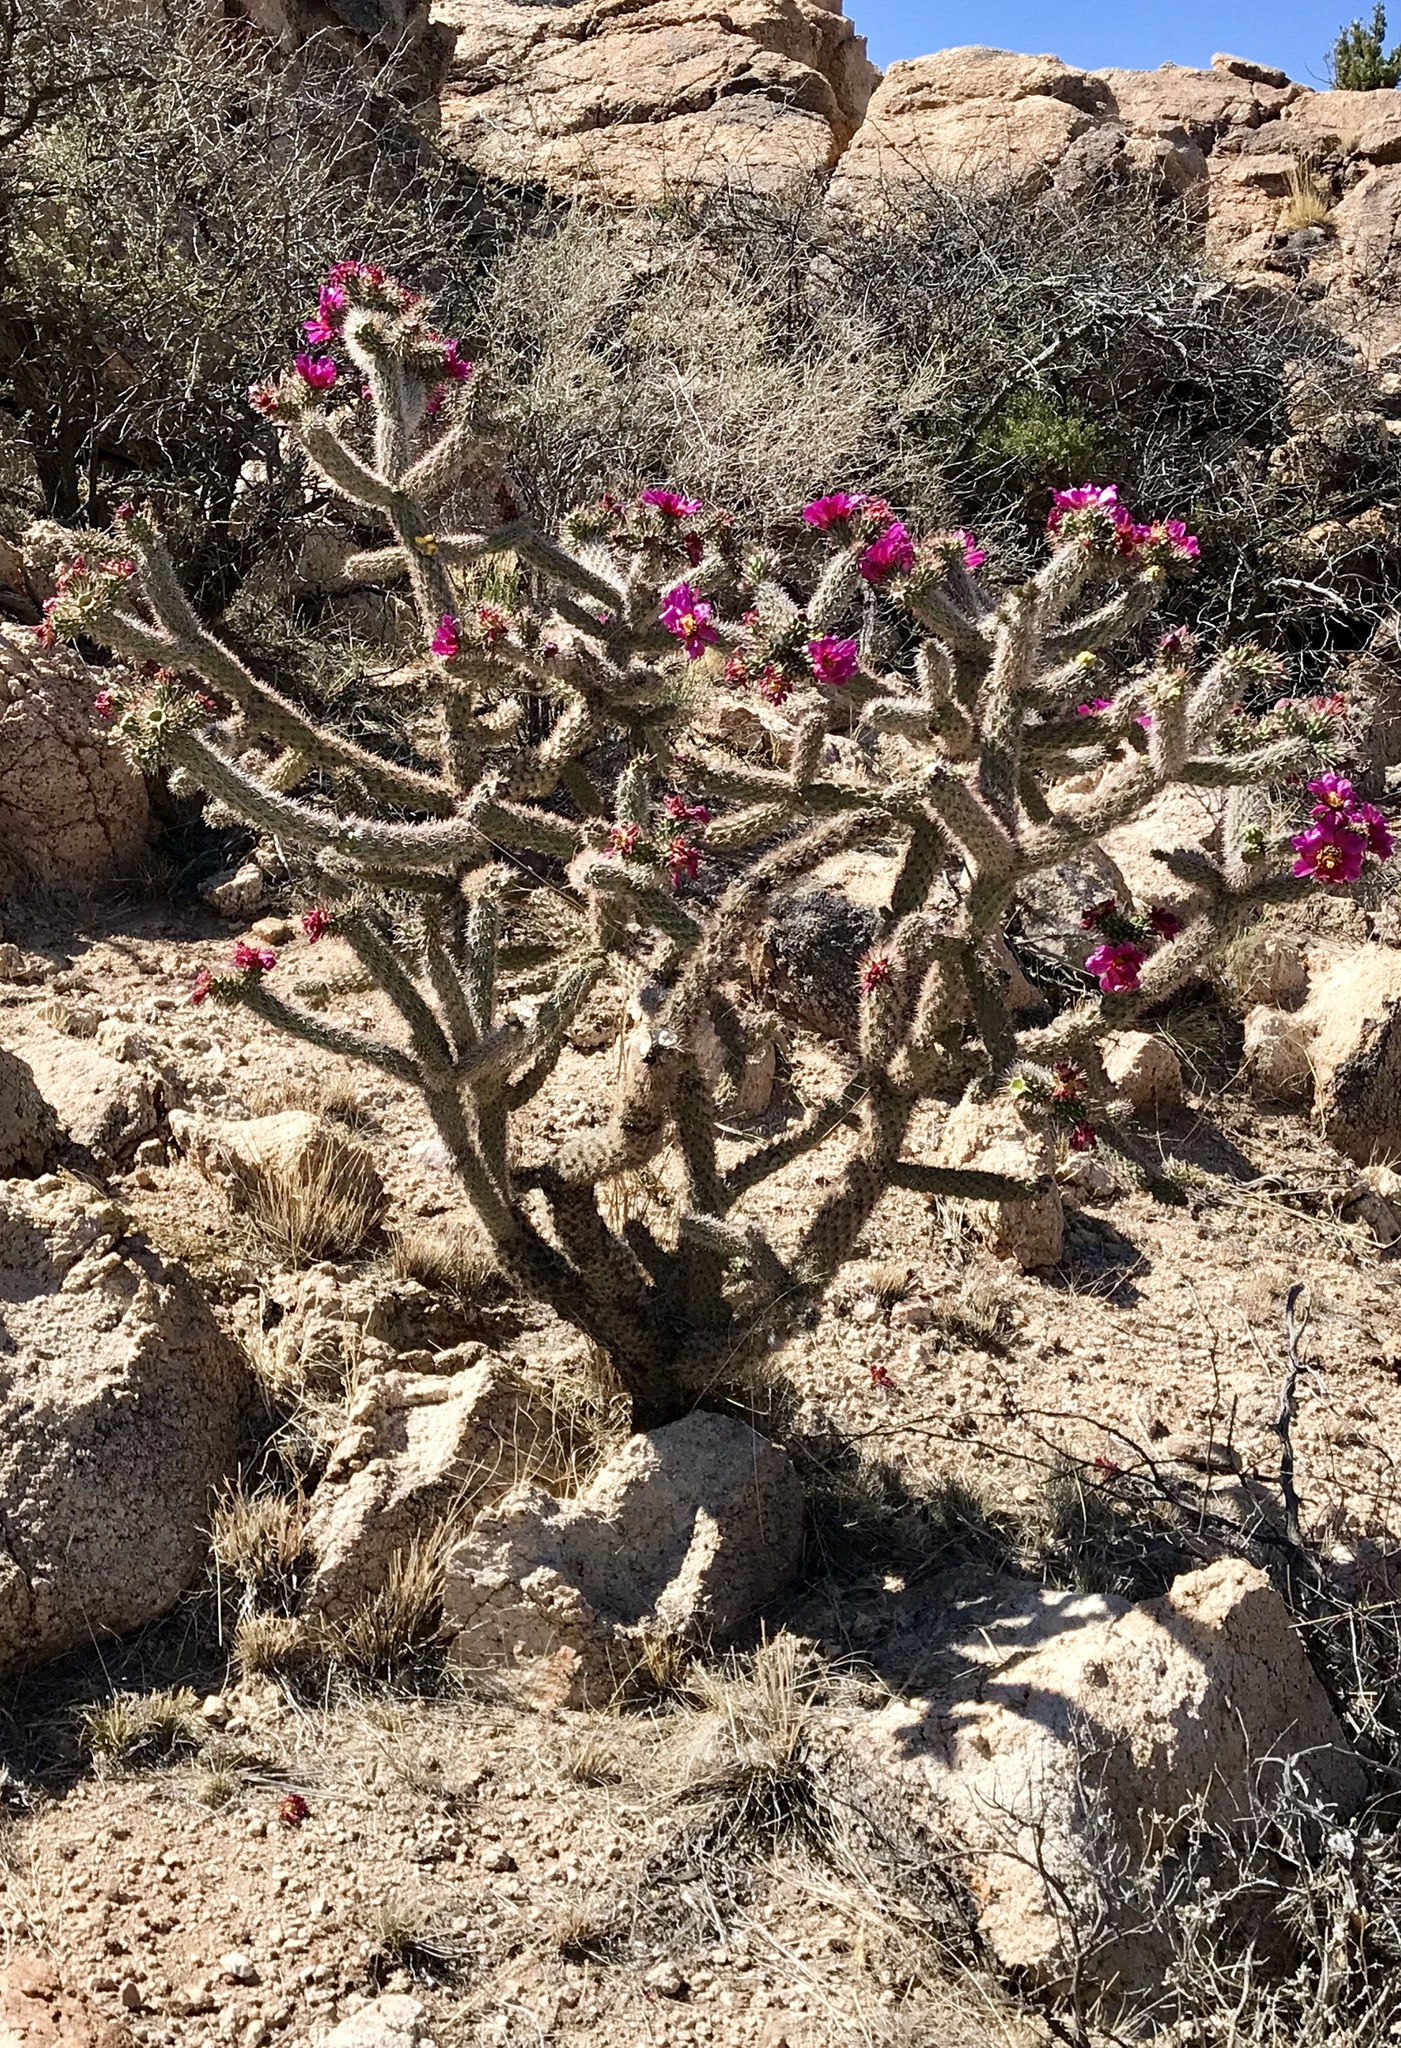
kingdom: Plantae
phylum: Tracheophyta
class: Magnoliopsida
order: Caryophyllales
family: Cactaceae
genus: Cylindropuntia
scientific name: Cylindropuntia imbricata
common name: Candelabrum cactus
